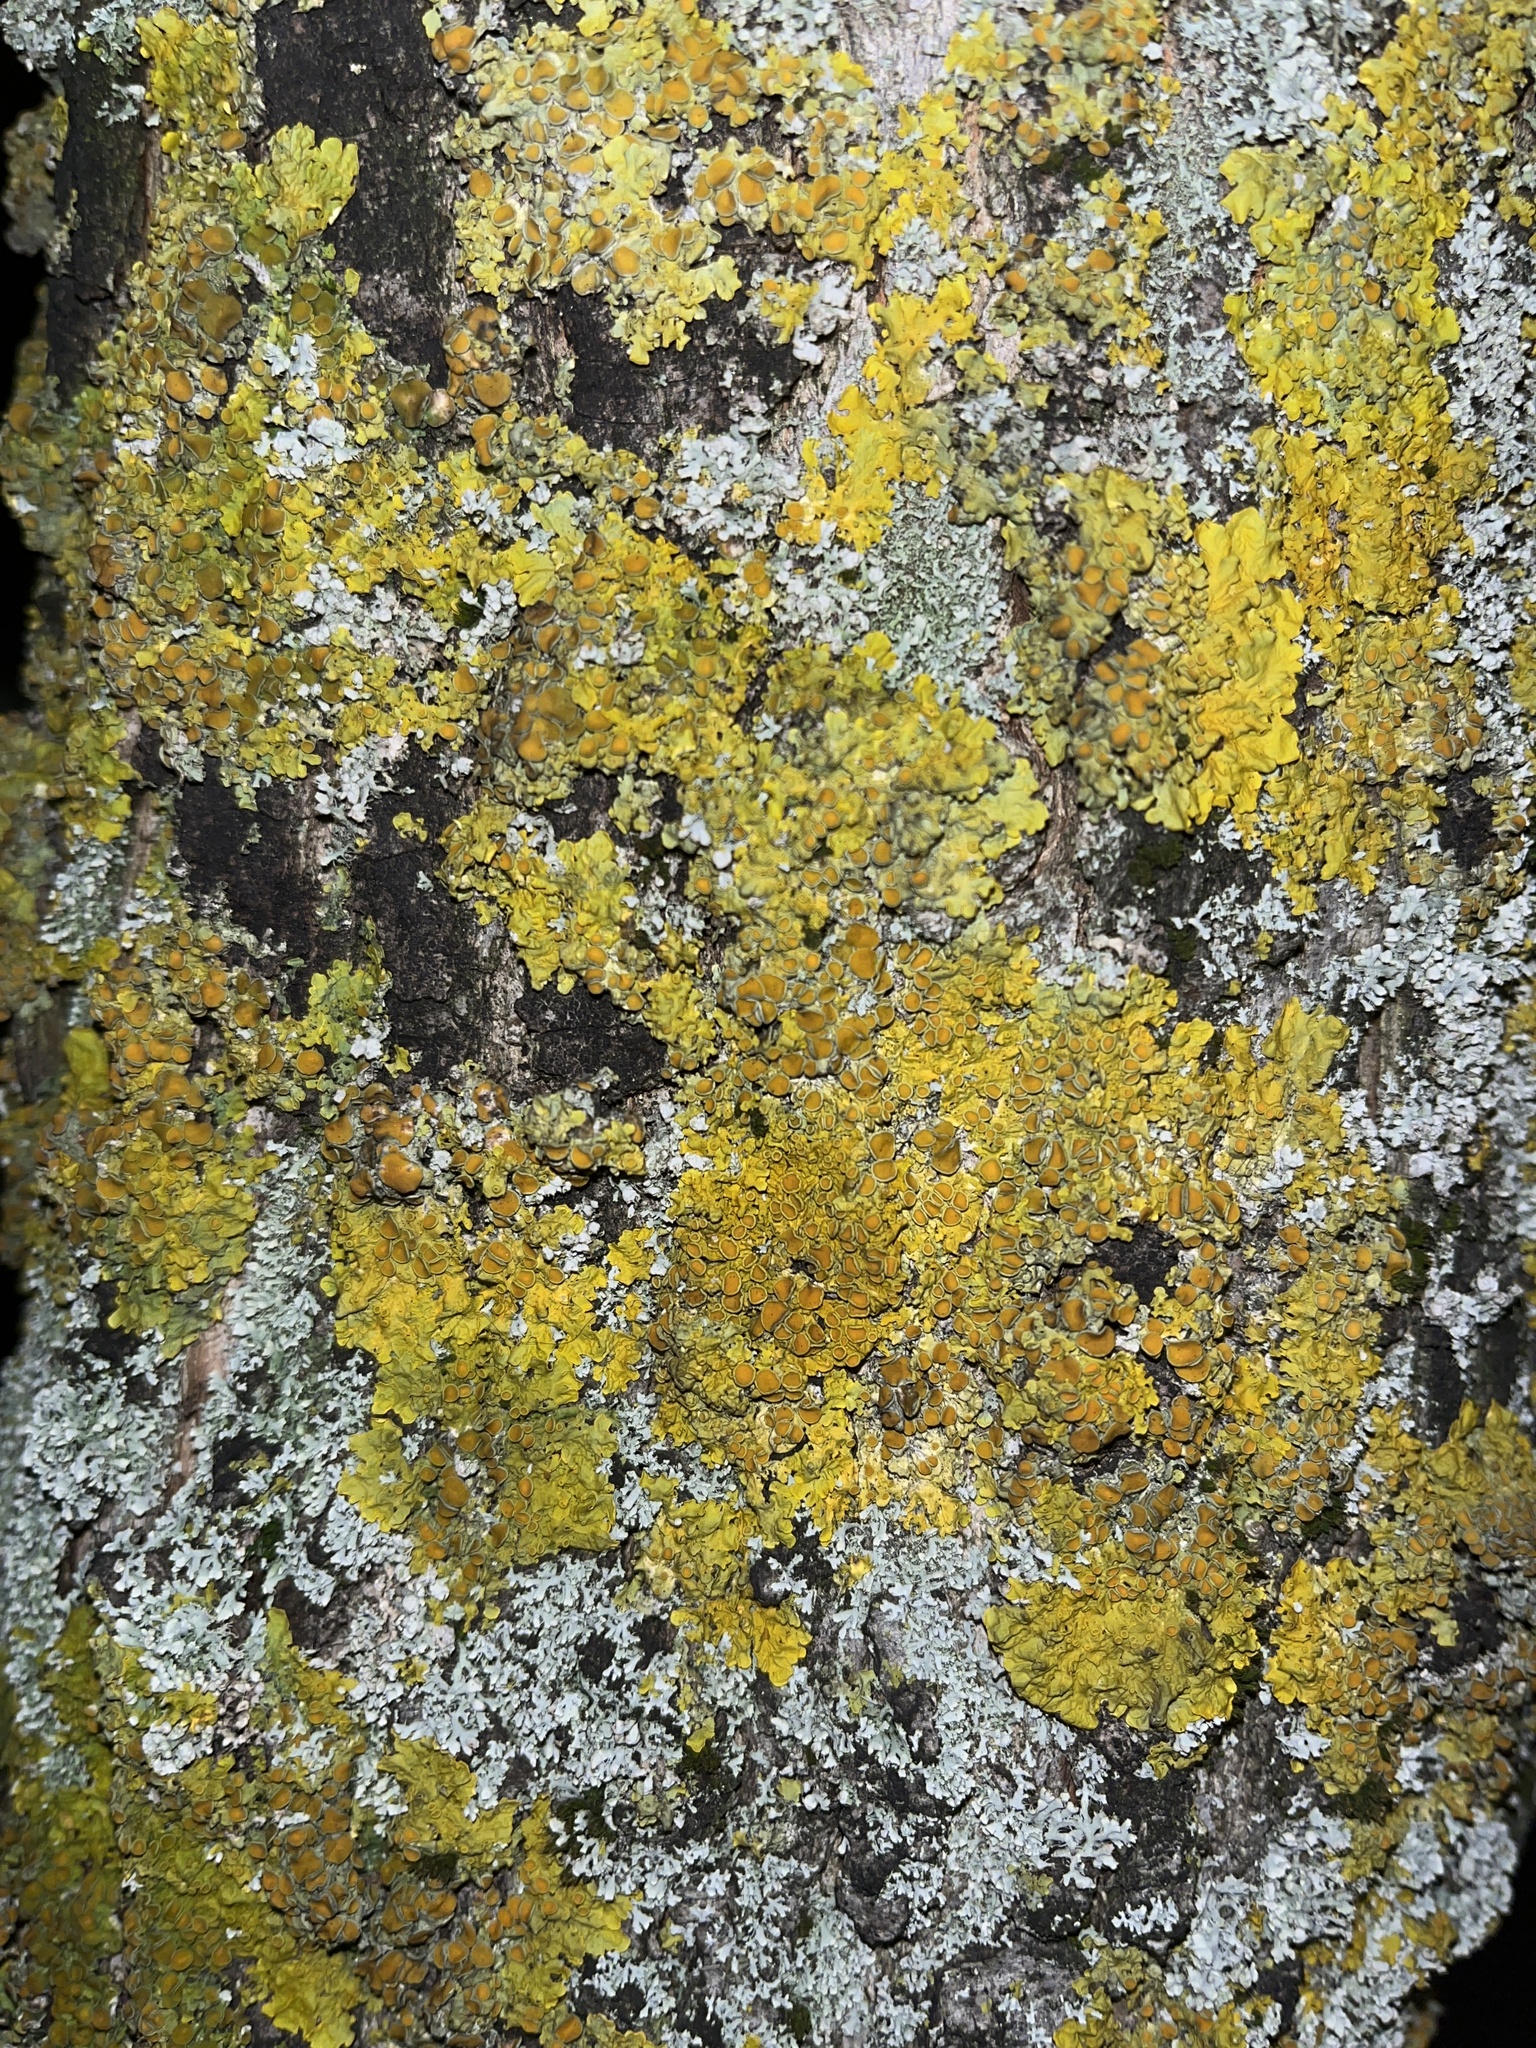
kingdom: Fungi
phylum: Ascomycota
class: Lecanoromycetes
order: Teloschistales
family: Teloschistaceae
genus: Xanthoria
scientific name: Xanthoria parietina
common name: Common orange lichen
